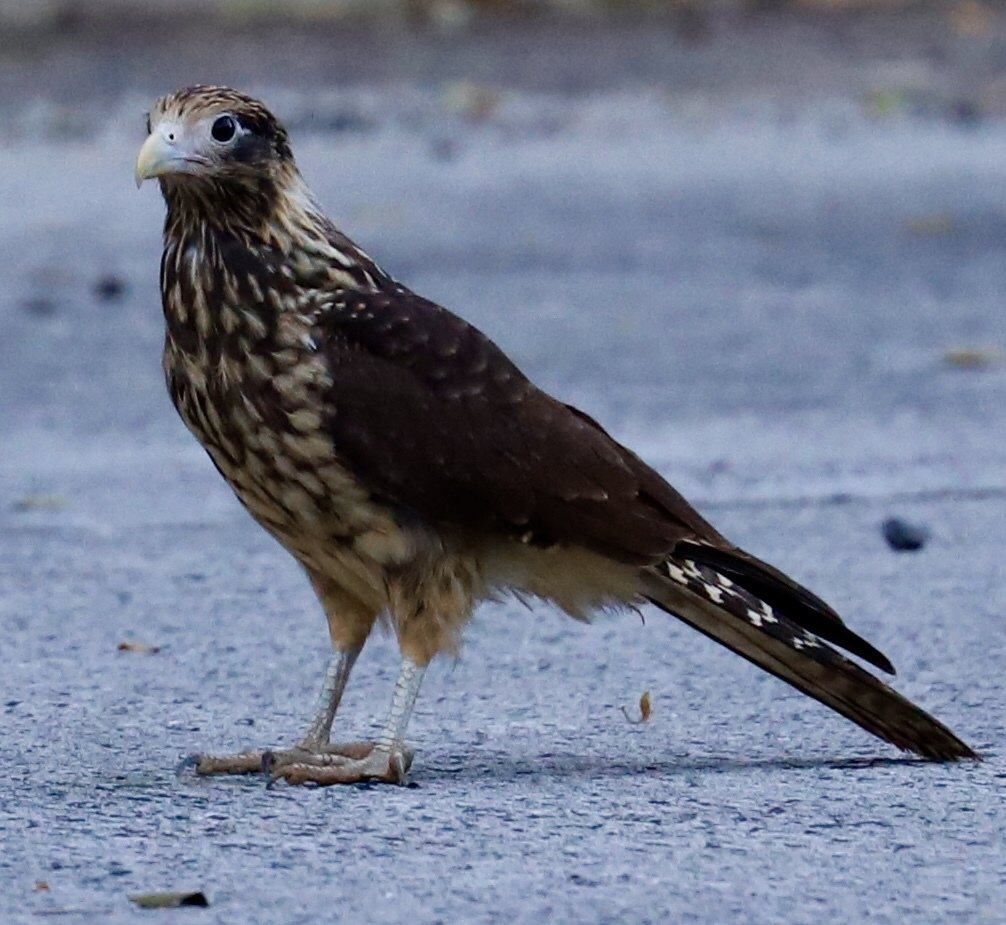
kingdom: Animalia
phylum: Chordata
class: Aves
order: Falconiformes
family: Falconidae
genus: Daptrius
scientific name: Daptrius
